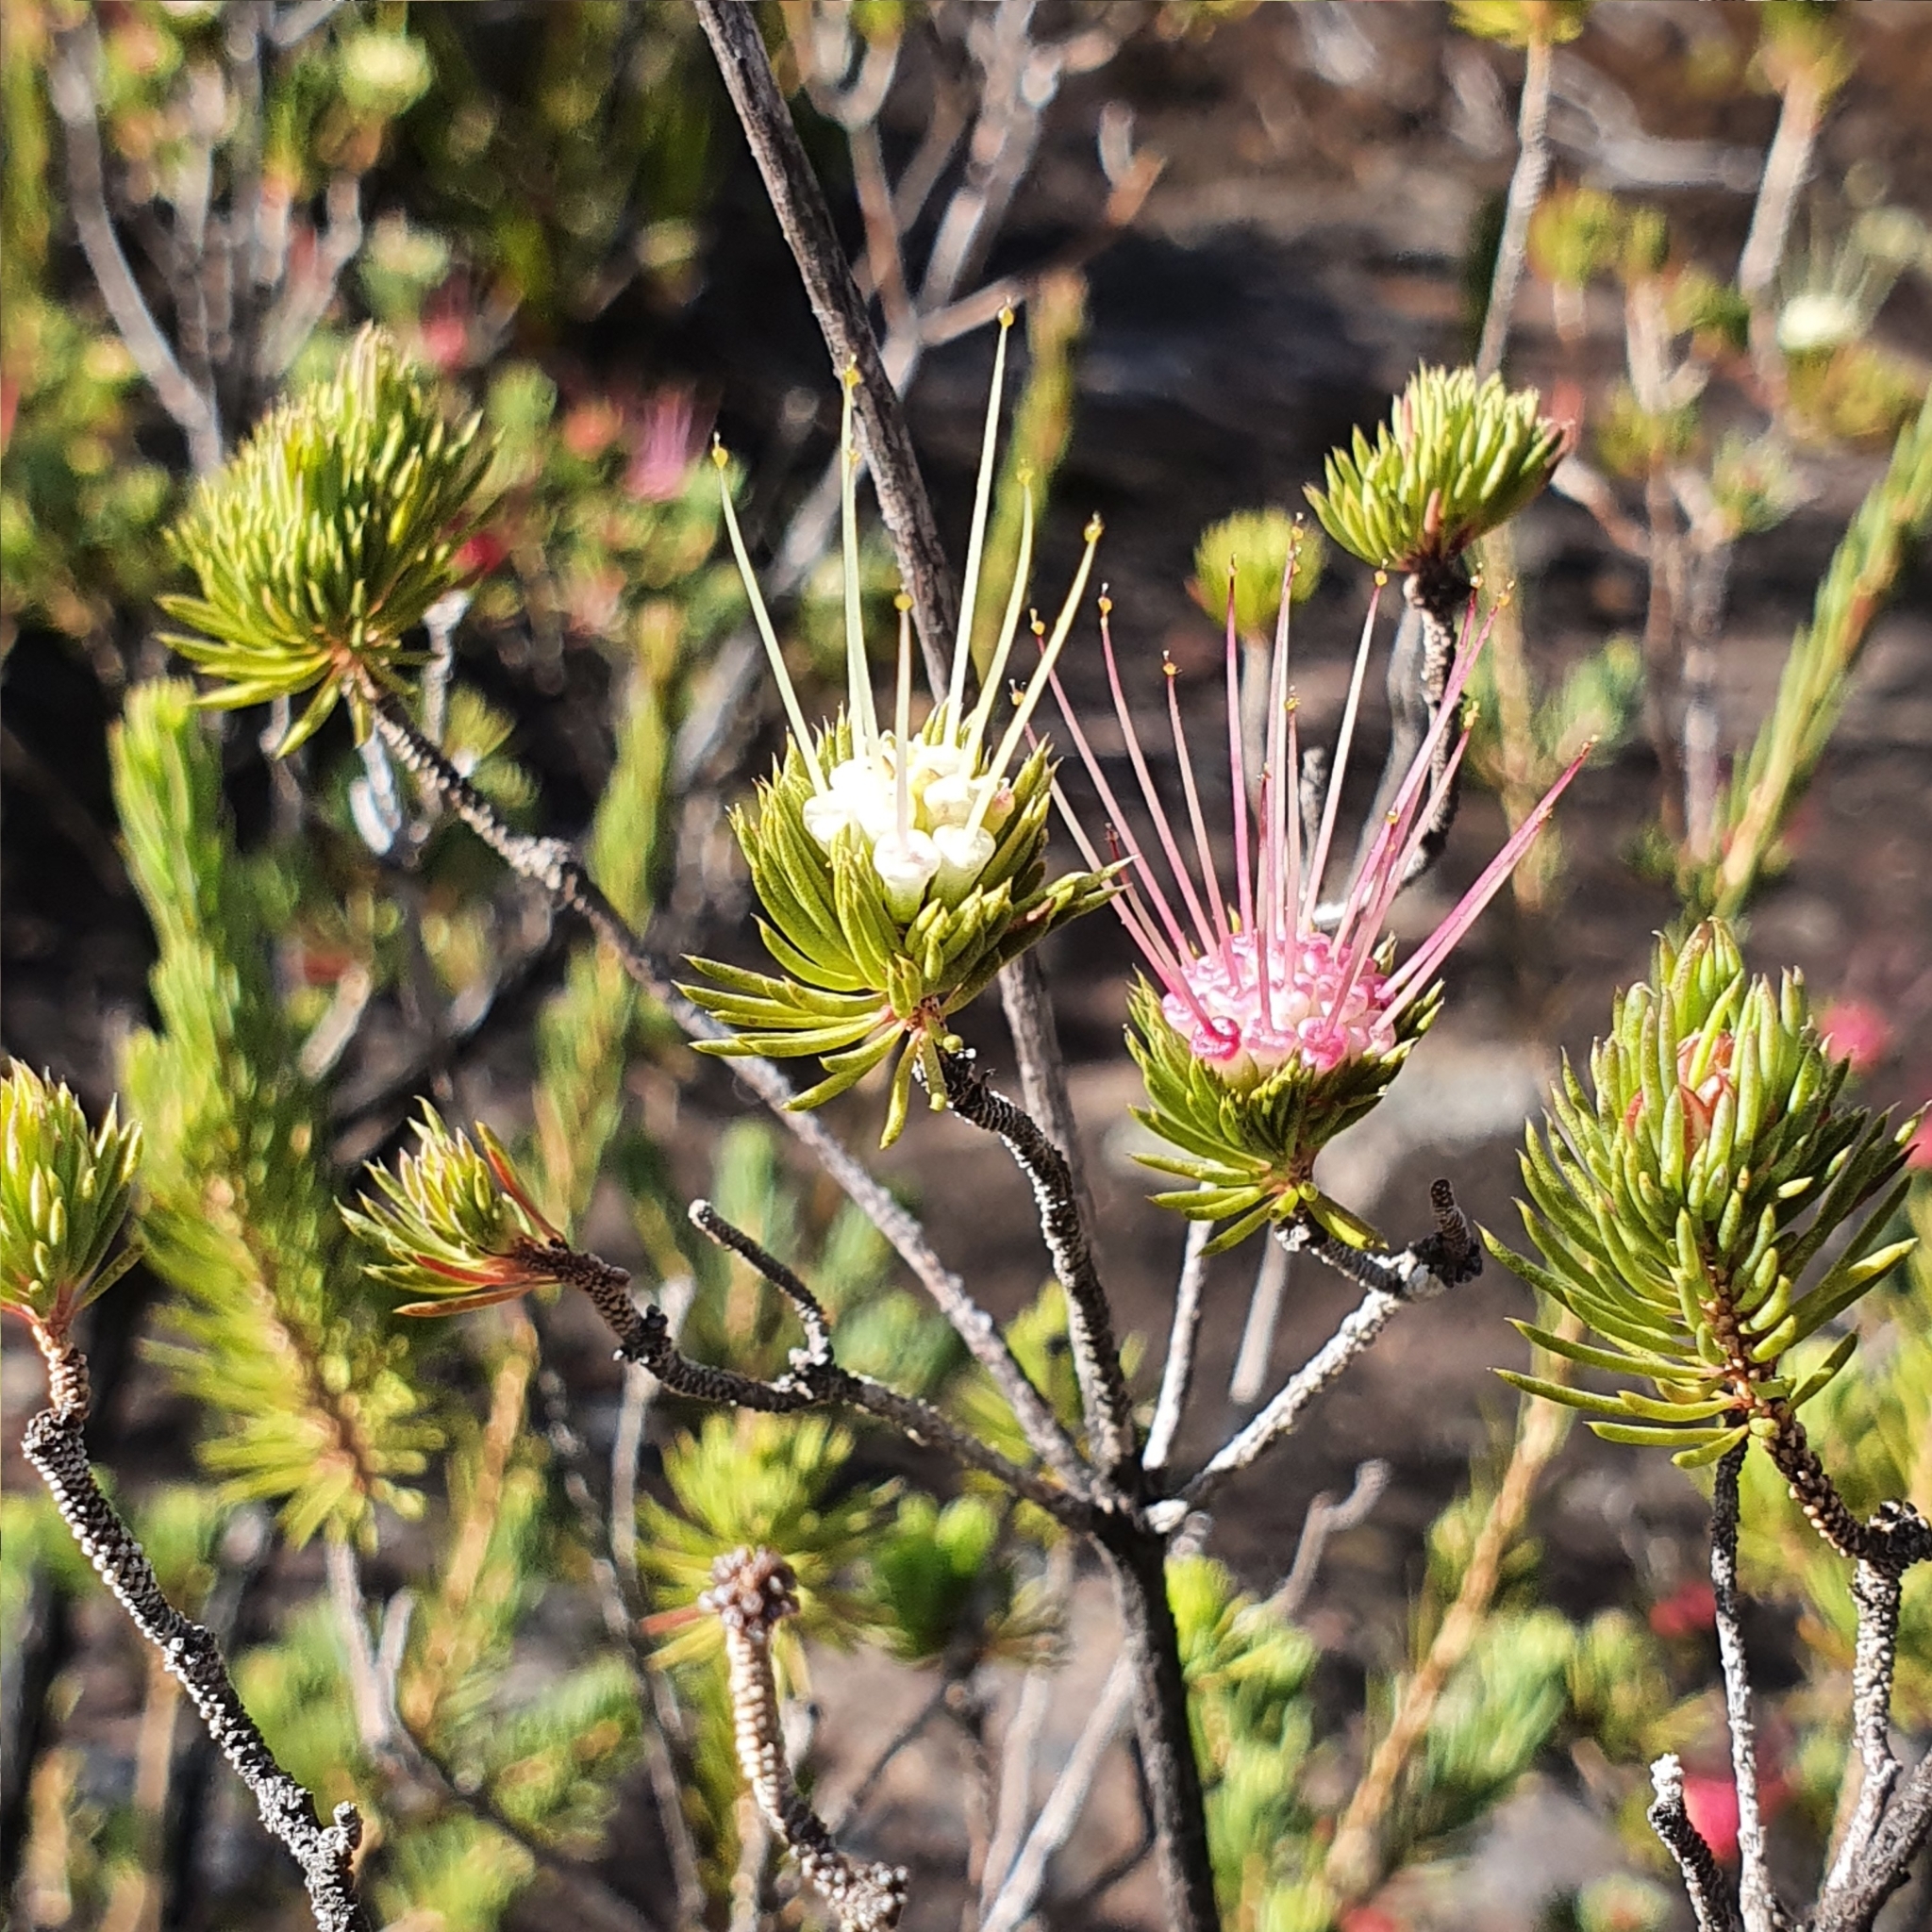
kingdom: Plantae
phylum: Tracheophyta
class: Magnoliopsida
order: Myrtales
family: Myrtaceae
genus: Darwinia
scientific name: Darwinia fascicularis
